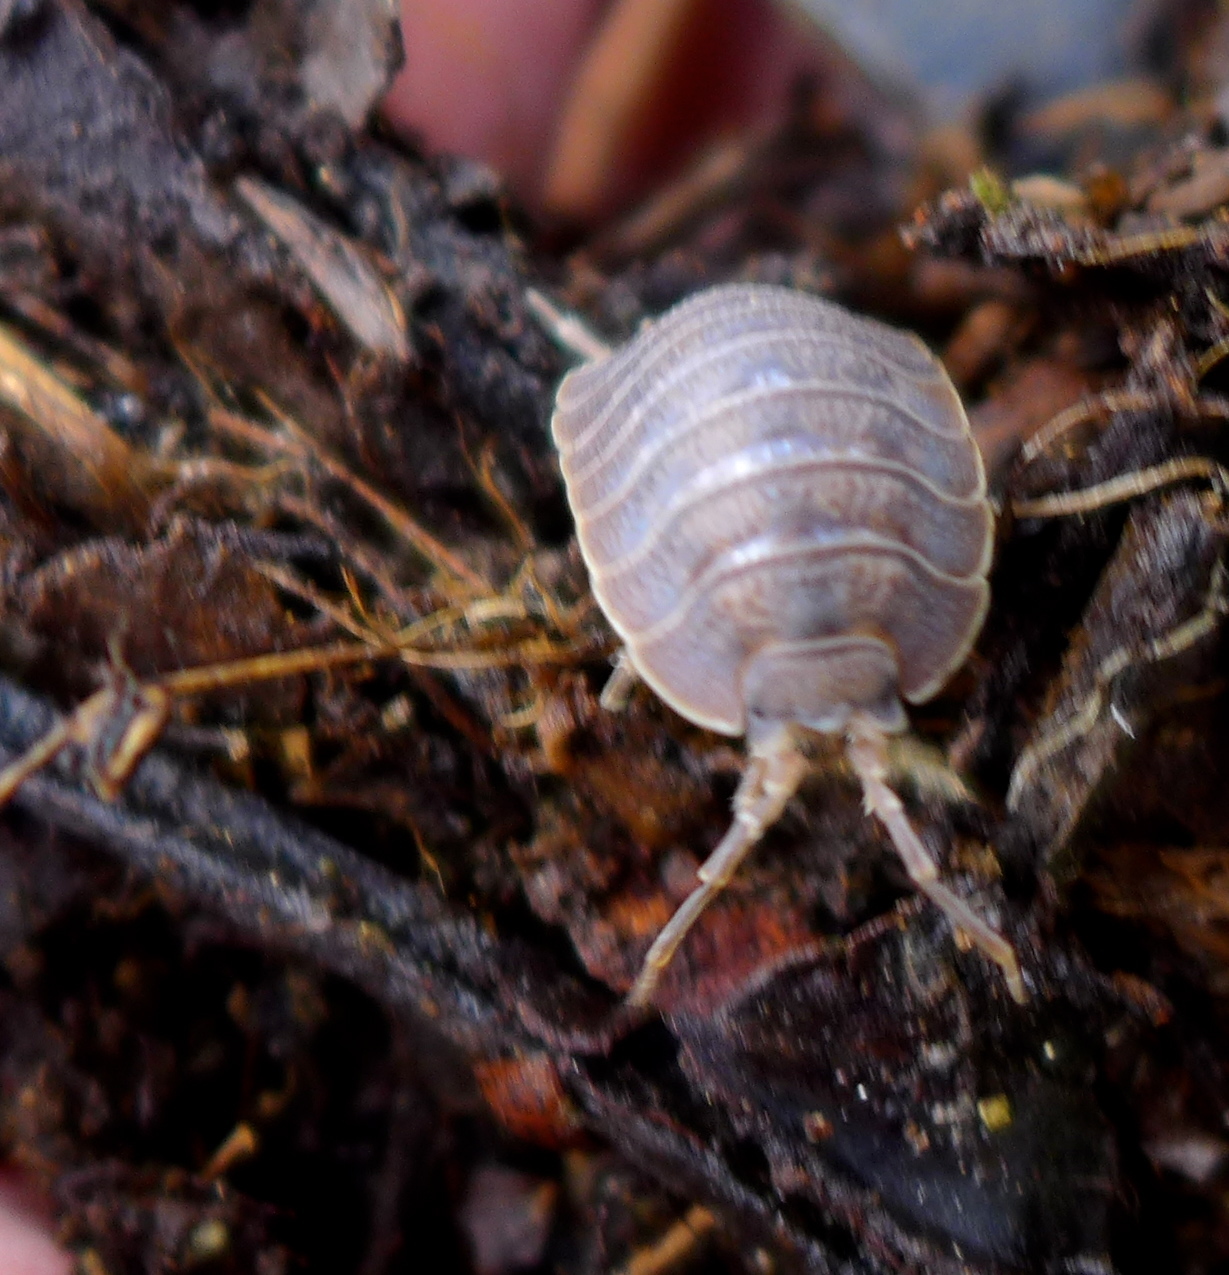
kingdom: Animalia
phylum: Arthropoda
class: Malacostraca
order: Isopoda
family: Porcellionidae
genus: Porcellio
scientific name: Porcellio dilatatus
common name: Isopod
